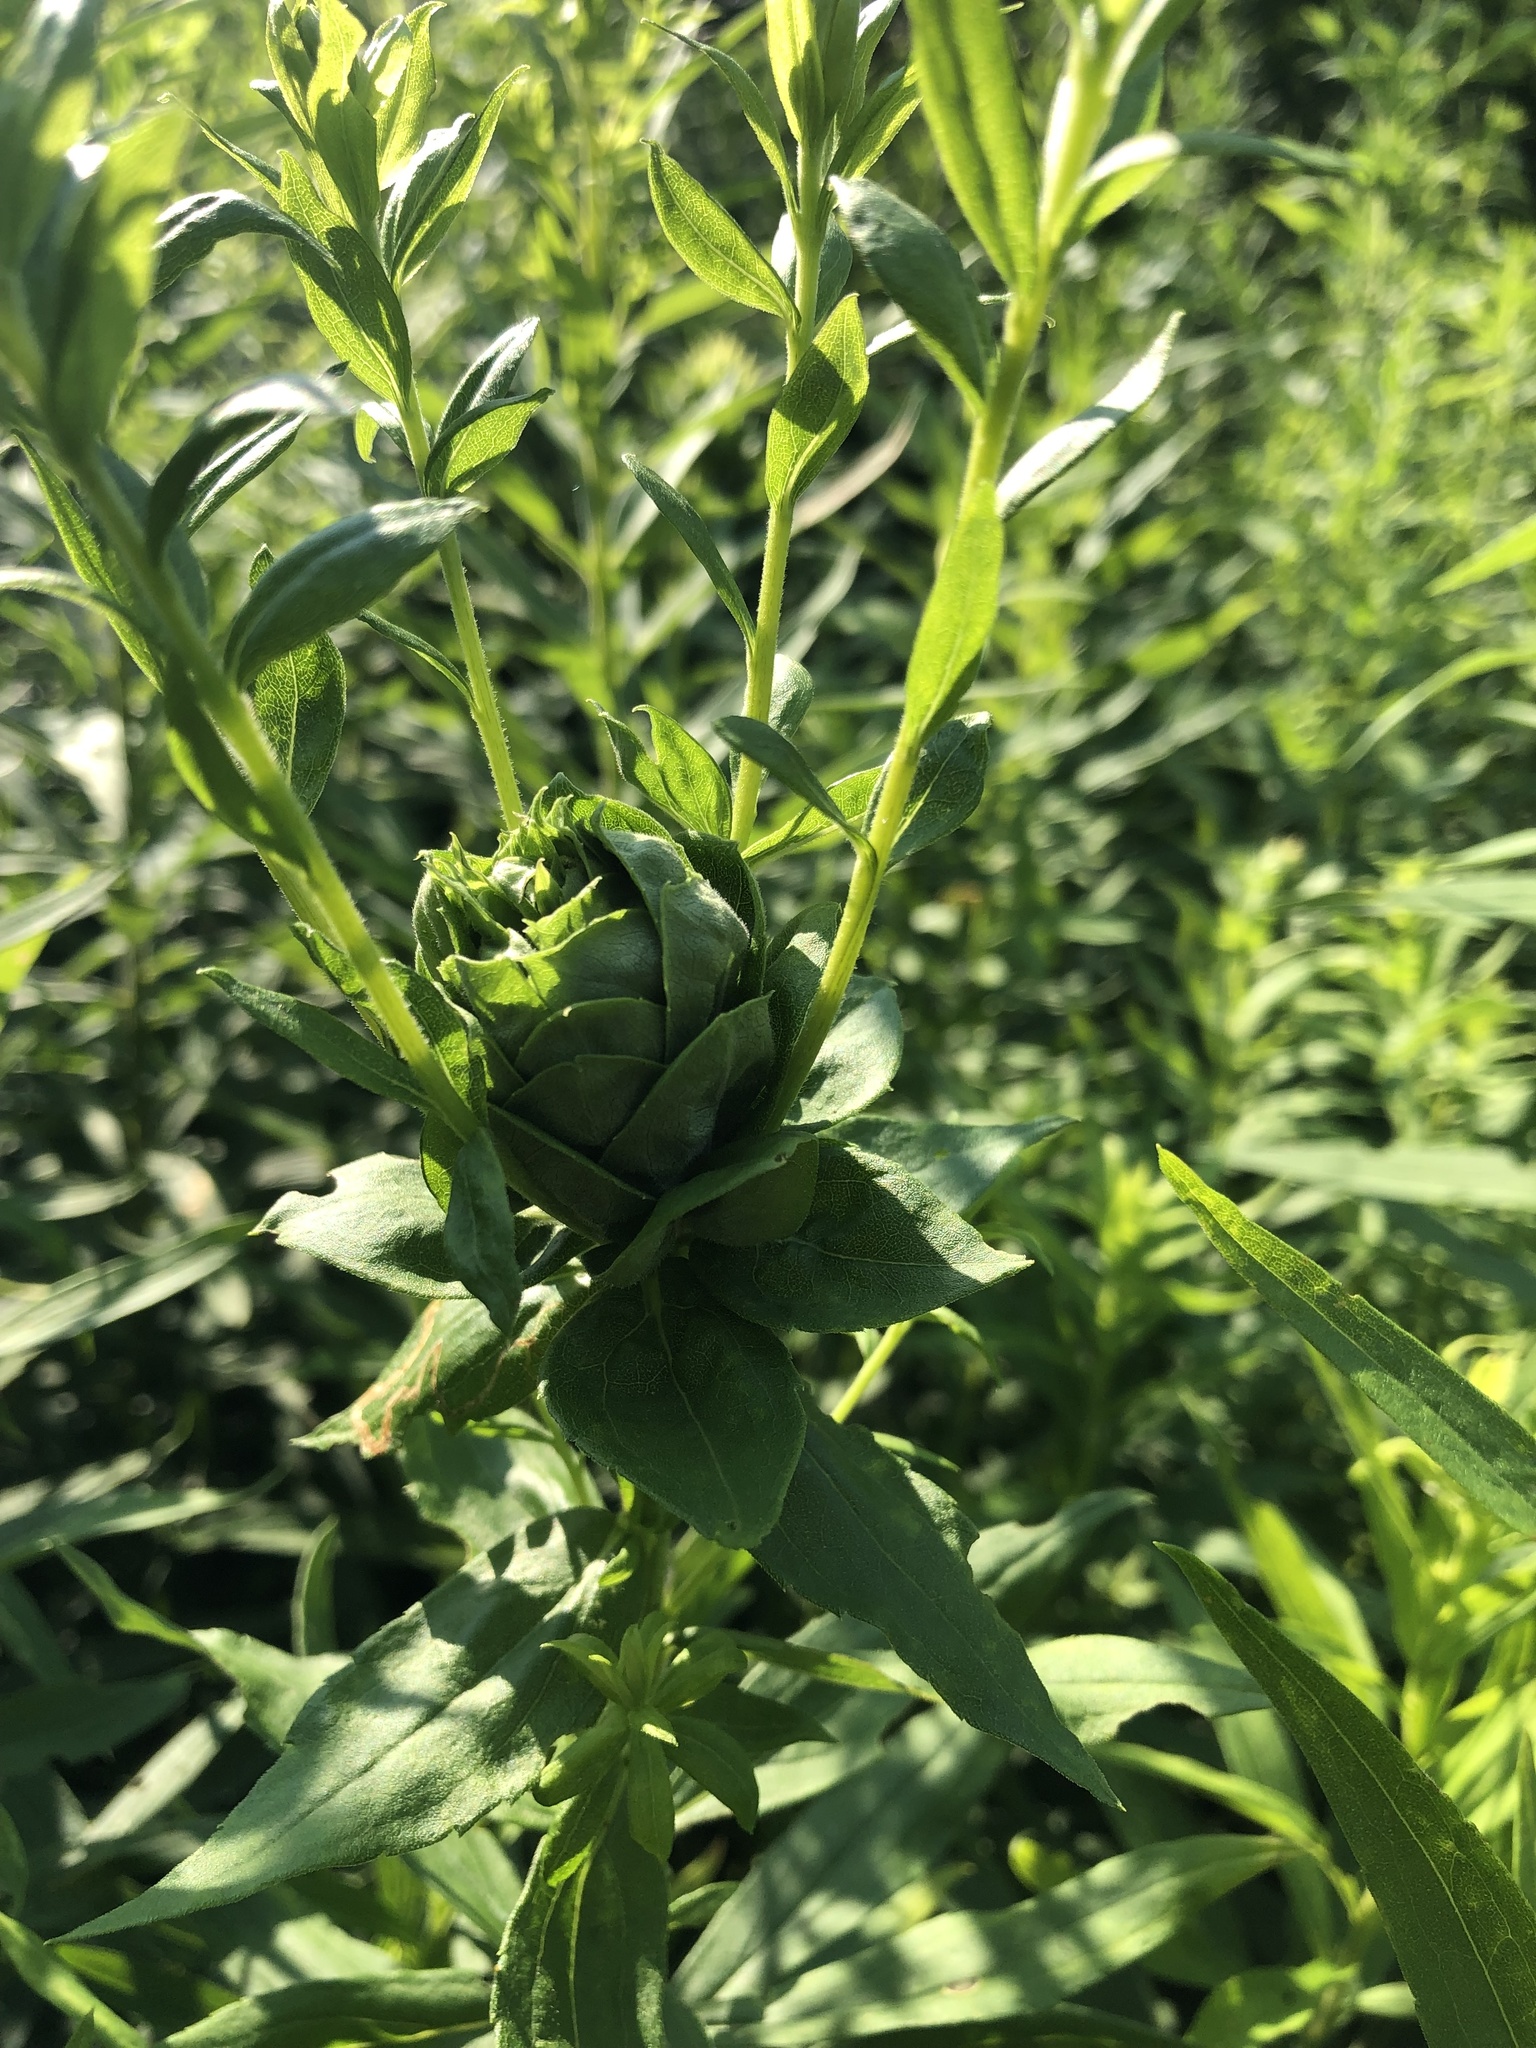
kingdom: Animalia
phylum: Arthropoda
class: Insecta
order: Diptera
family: Cecidomyiidae
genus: Rhopalomyia
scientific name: Rhopalomyia solidaginis
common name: Goldenrod bunch gall midge
